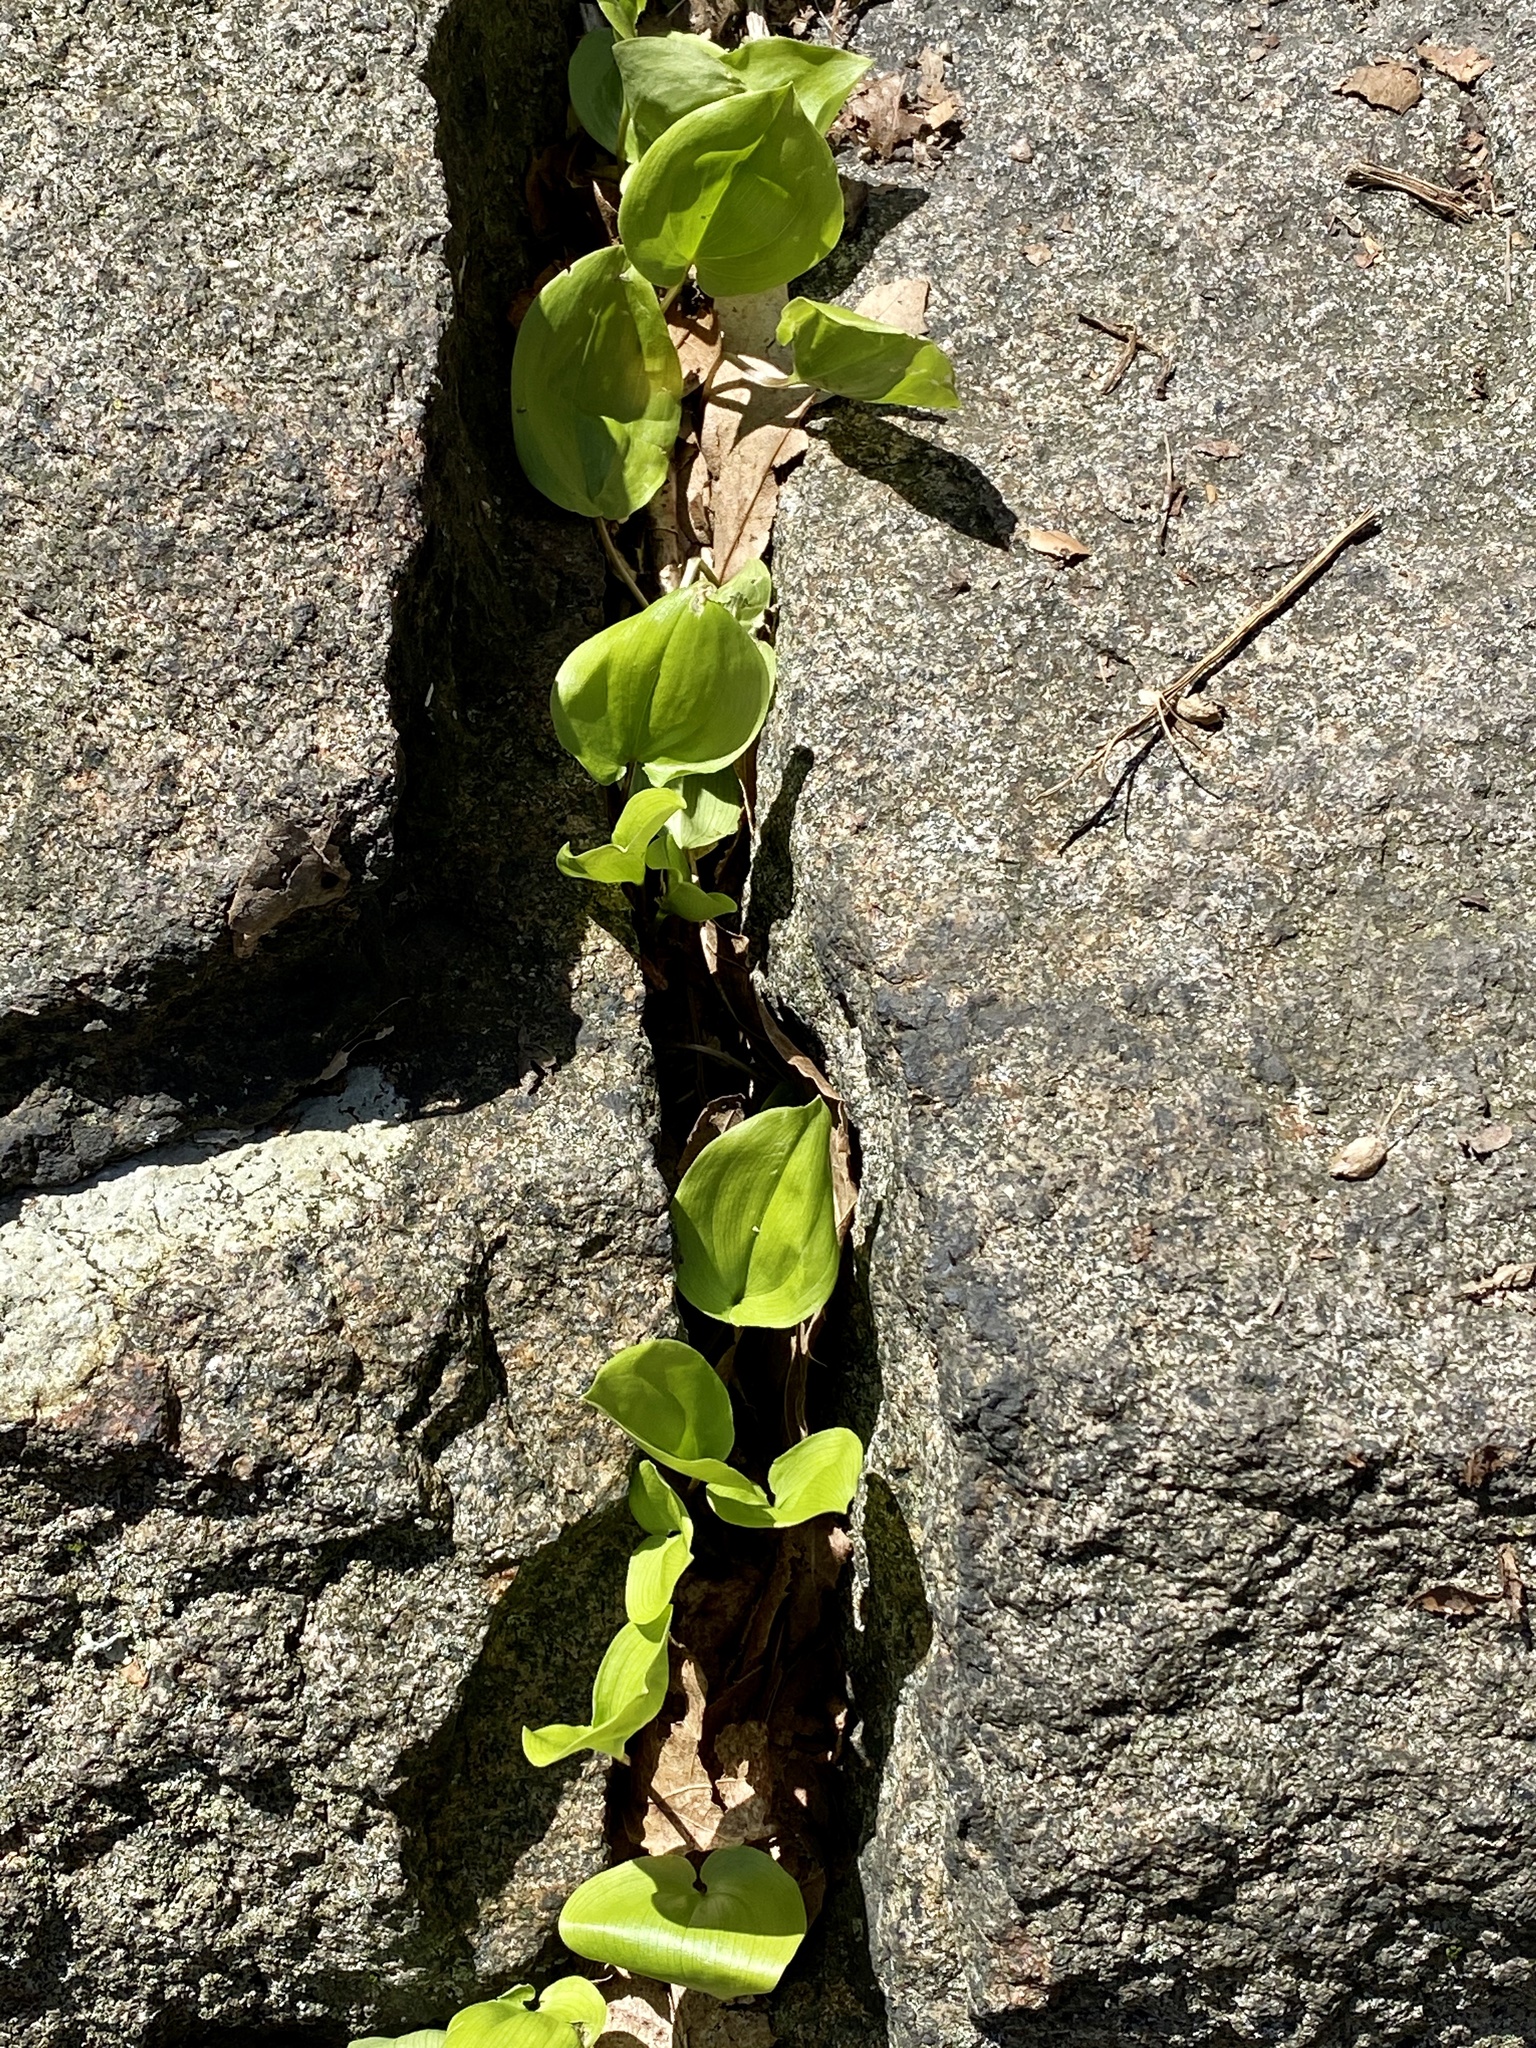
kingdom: Plantae
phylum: Tracheophyta
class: Liliopsida
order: Asparagales
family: Asparagaceae
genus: Maianthemum
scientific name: Maianthemum canadense
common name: False lily-of-the-valley
